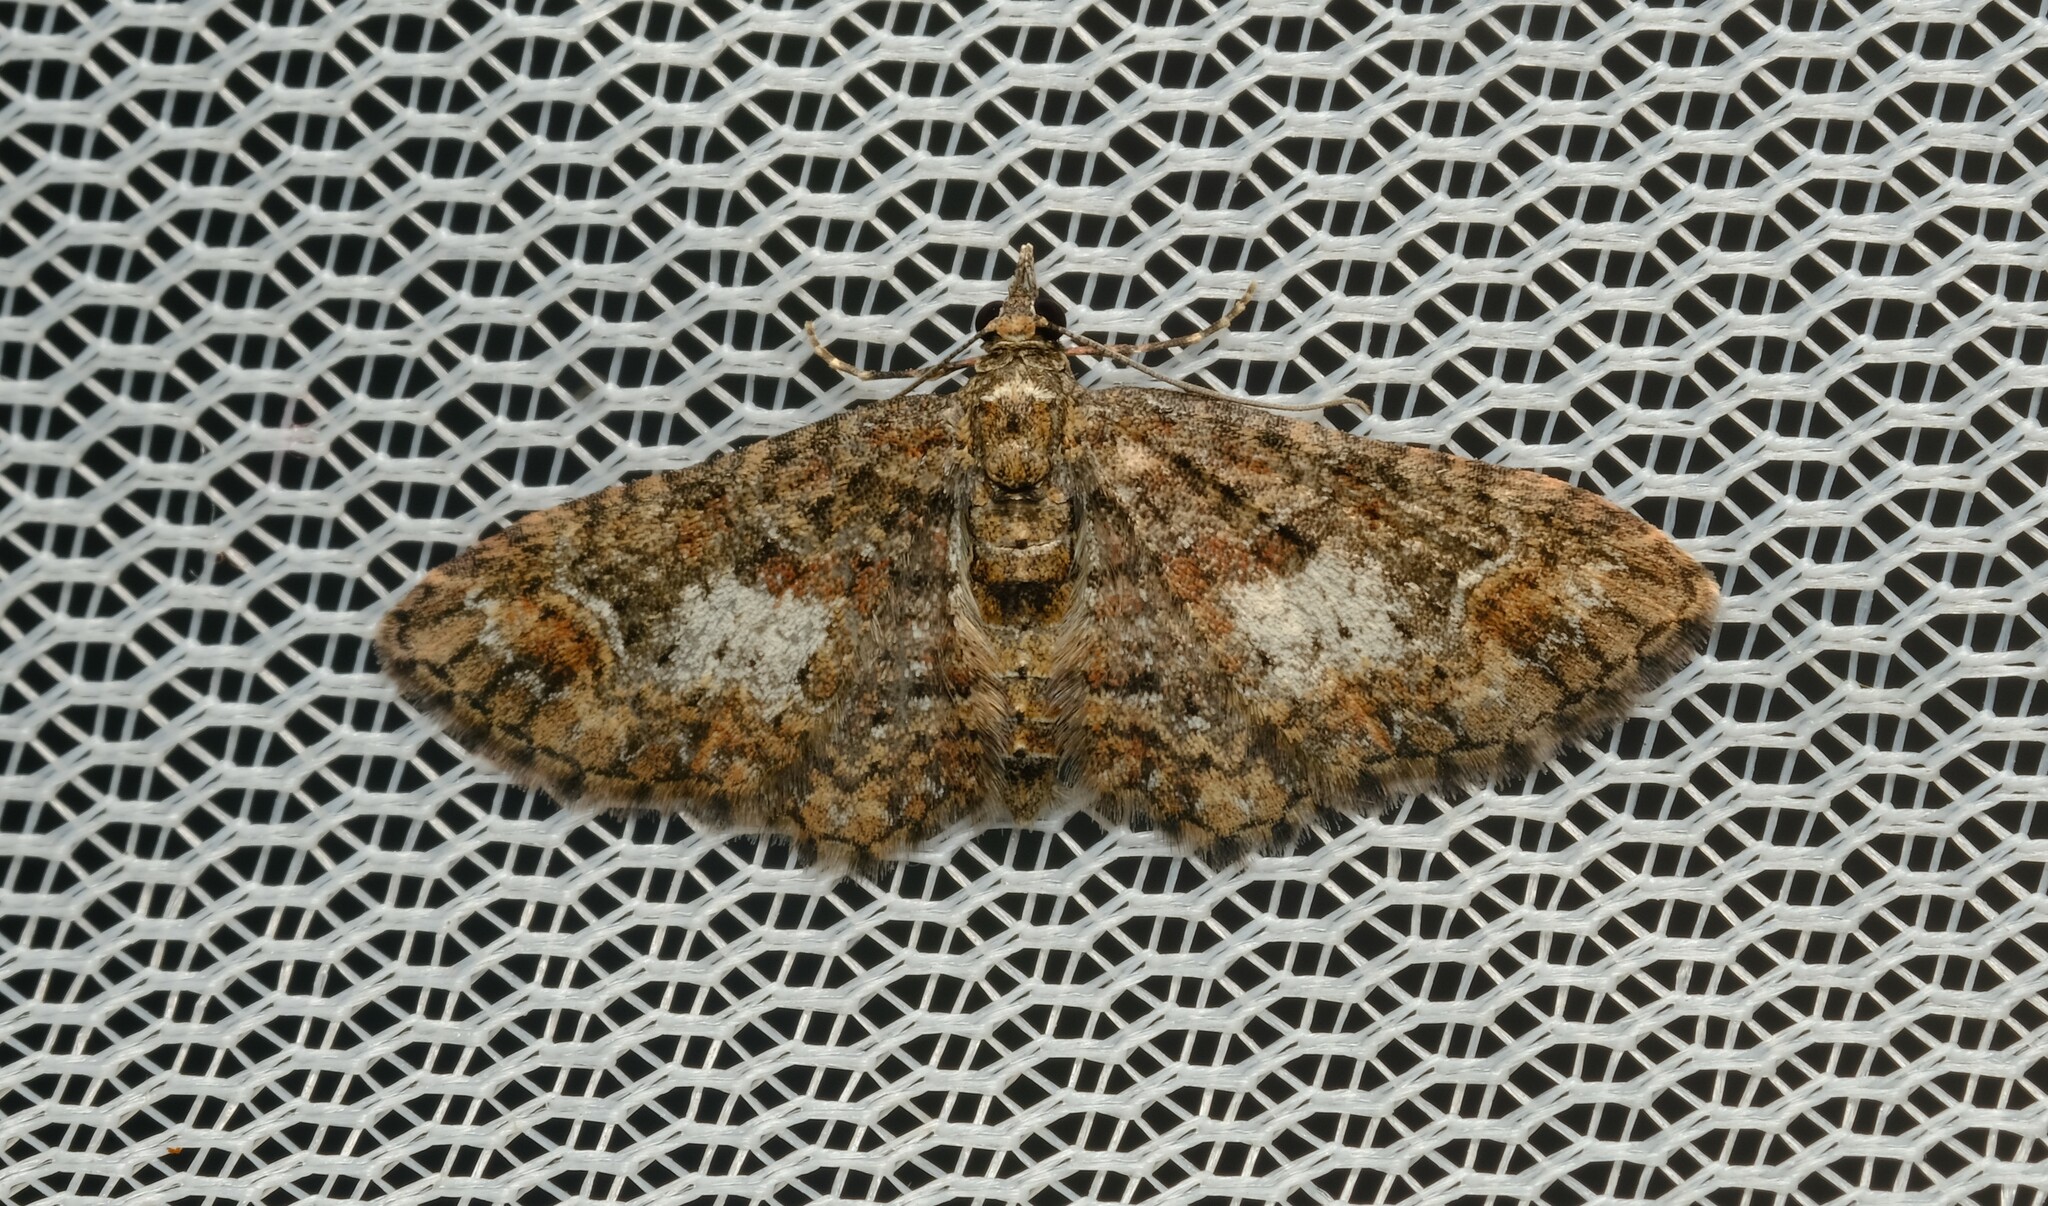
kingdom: Animalia
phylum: Arthropoda
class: Insecta
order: Lepidoptera
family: Geometridae
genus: Pasiphilodes
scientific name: Pasiphilodes testulata
